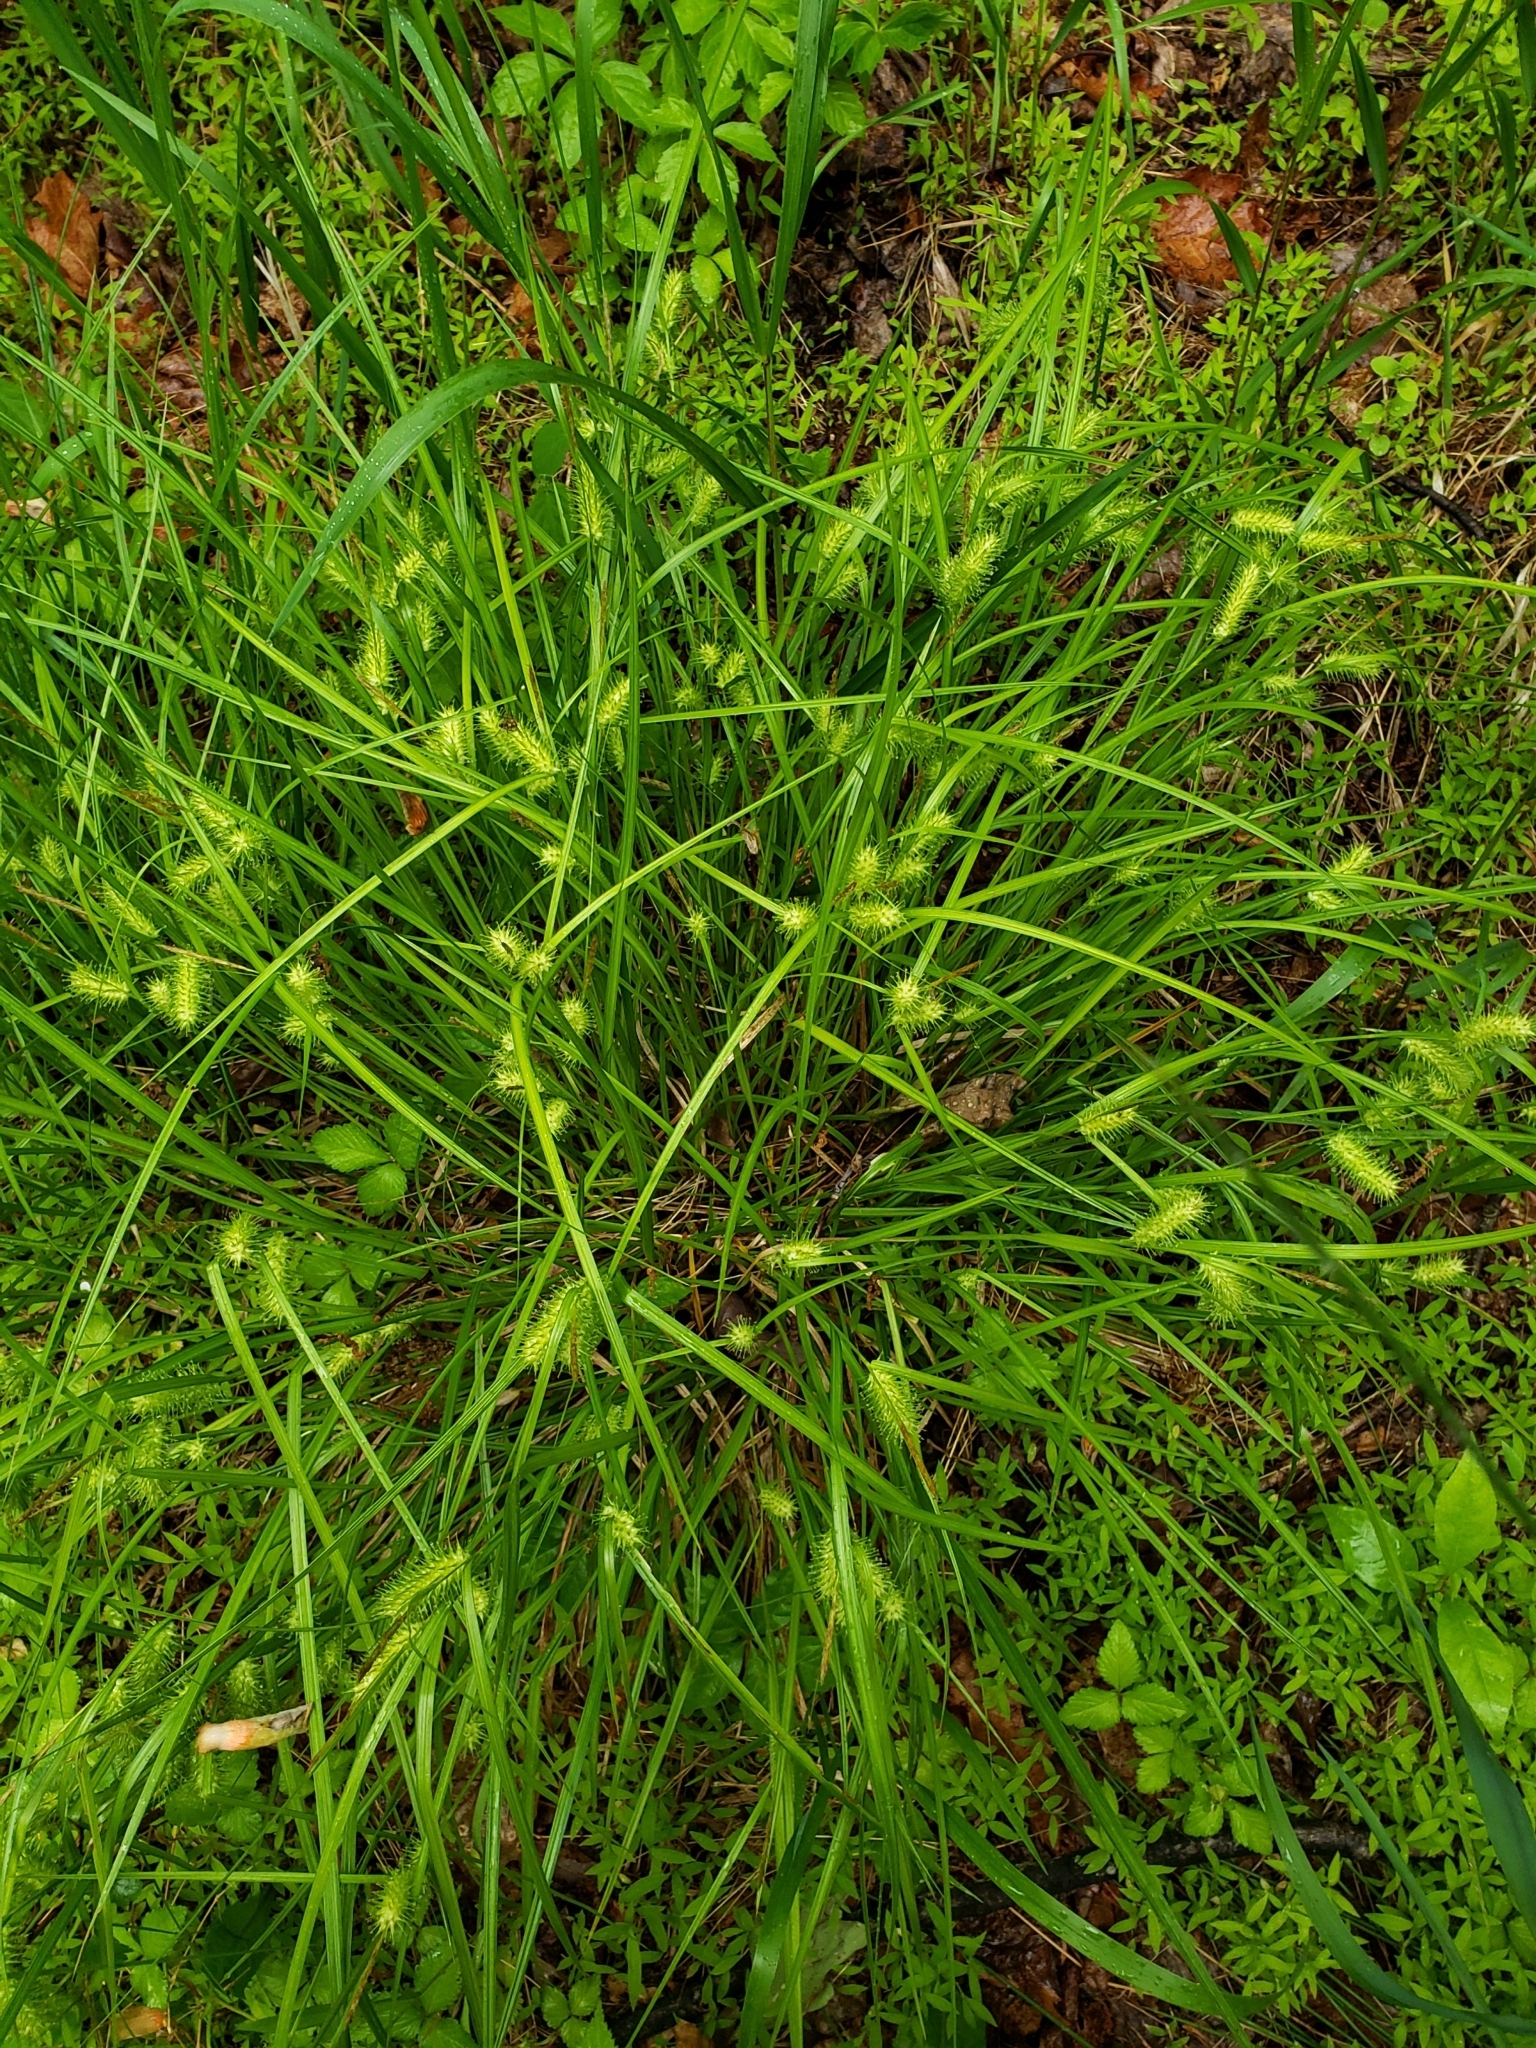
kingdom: Plantae
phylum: Tracheophyta
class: Liliopsida
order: Poales
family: Cyperaceae
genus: Carex
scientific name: Carex lurida
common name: Sallow sedge
